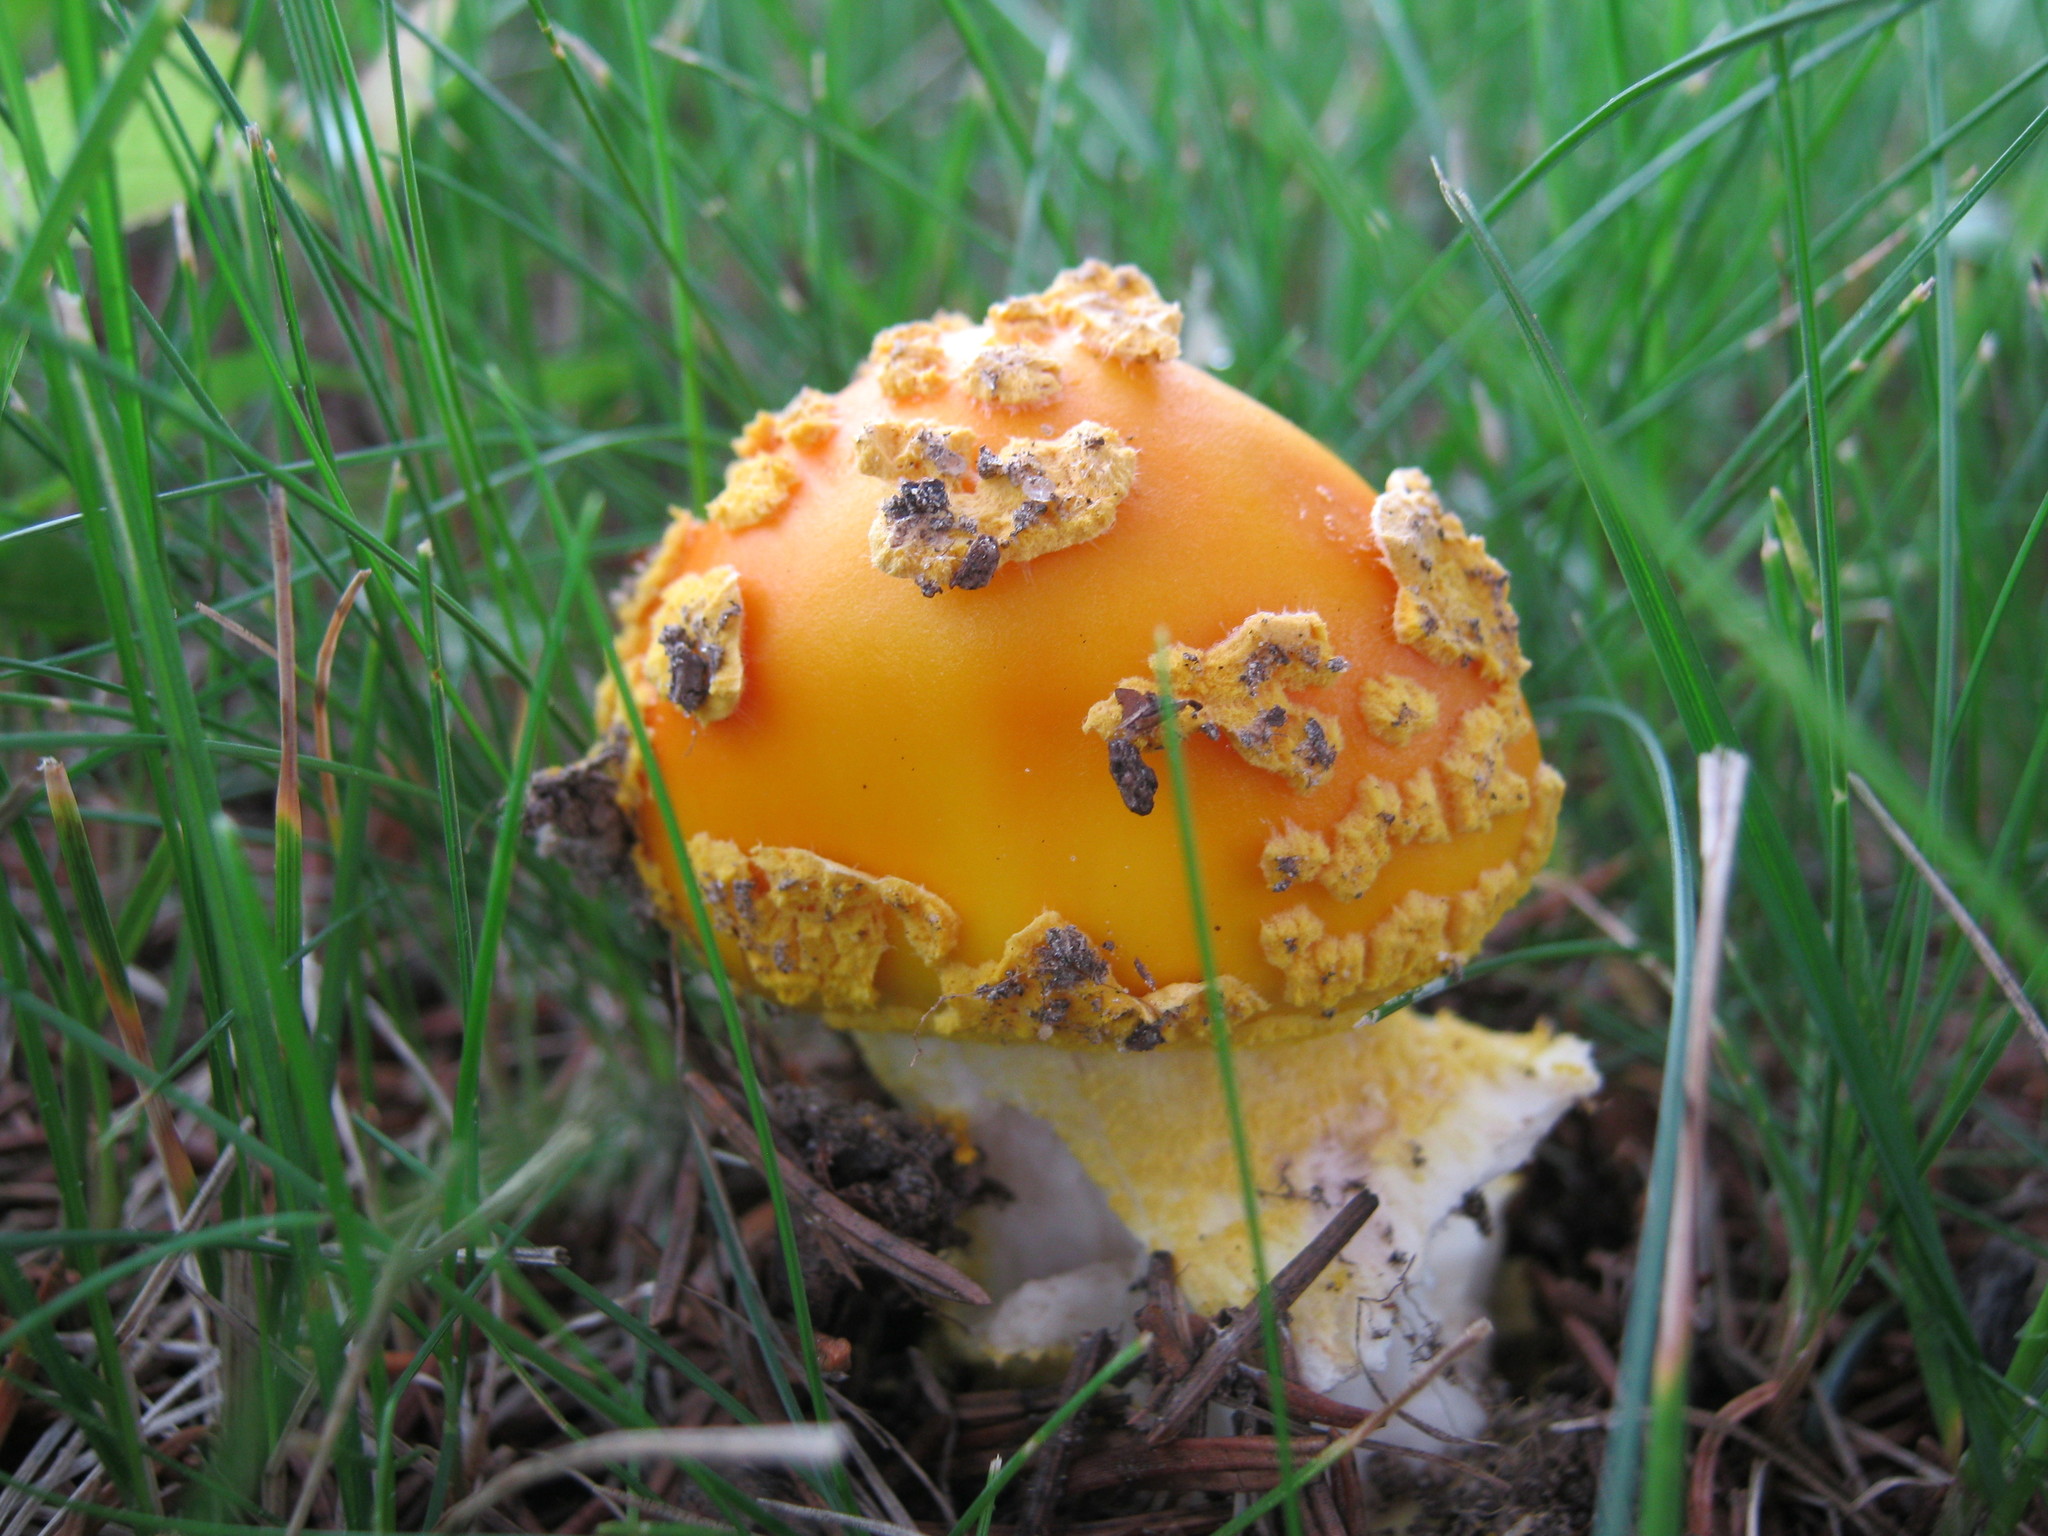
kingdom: Fungi
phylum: Basidiomycota
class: Agaricomycetes
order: Agaricales
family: Amanitaceae
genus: Amanita
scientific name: Amanita flavoconia
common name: Yellow patches
